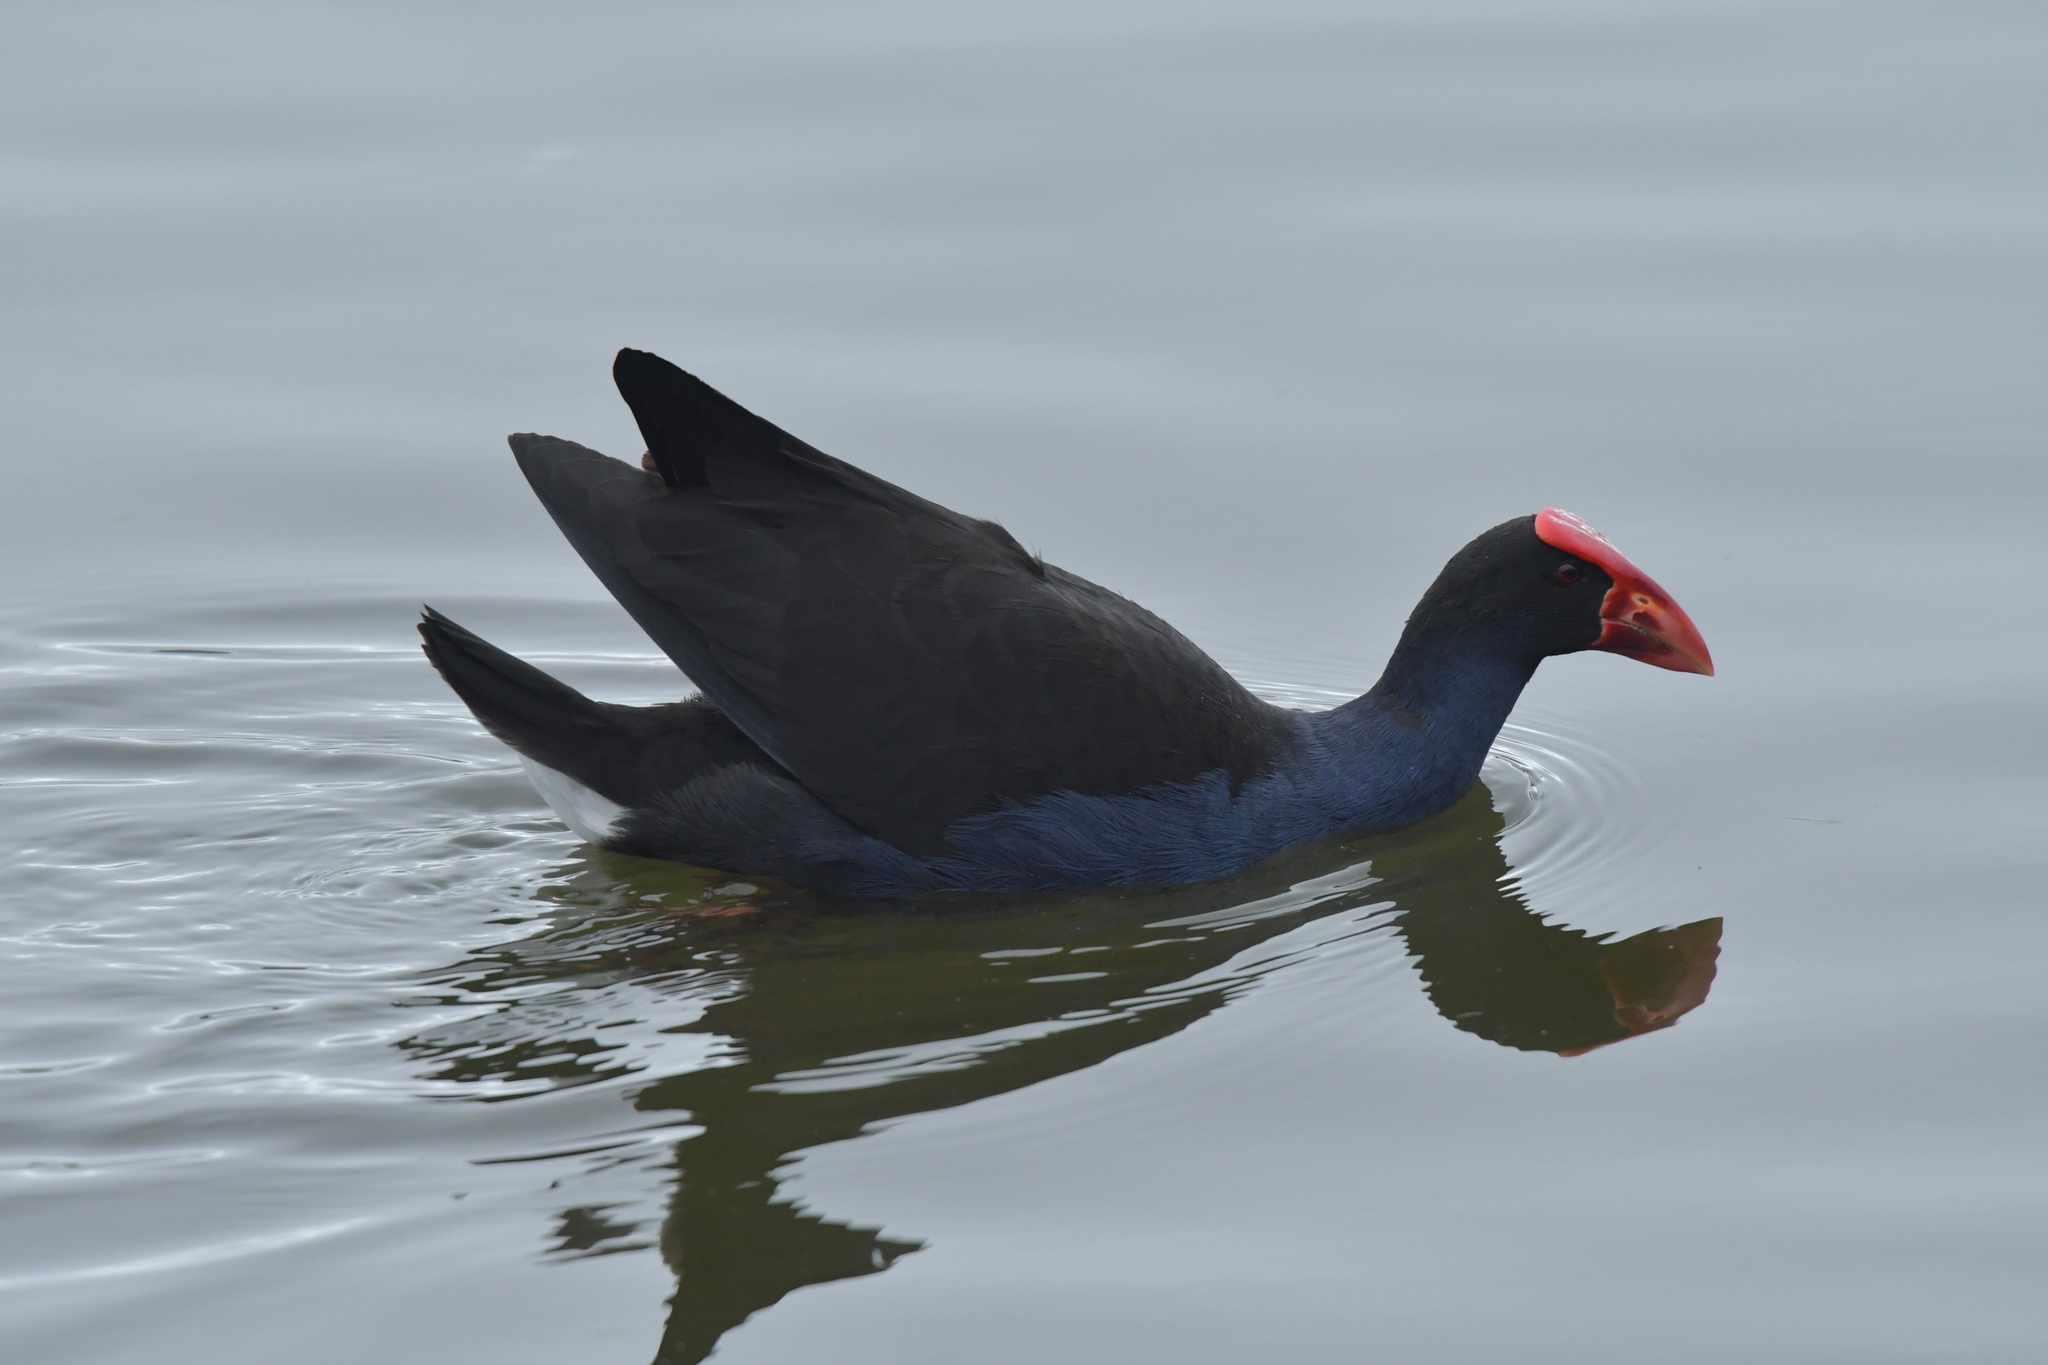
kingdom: Animalia
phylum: Chordata
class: Aves
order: Gruiformes
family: Rallidae
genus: Porphyrio
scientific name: Porphyrio melanotus
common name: Australasian swamphen
